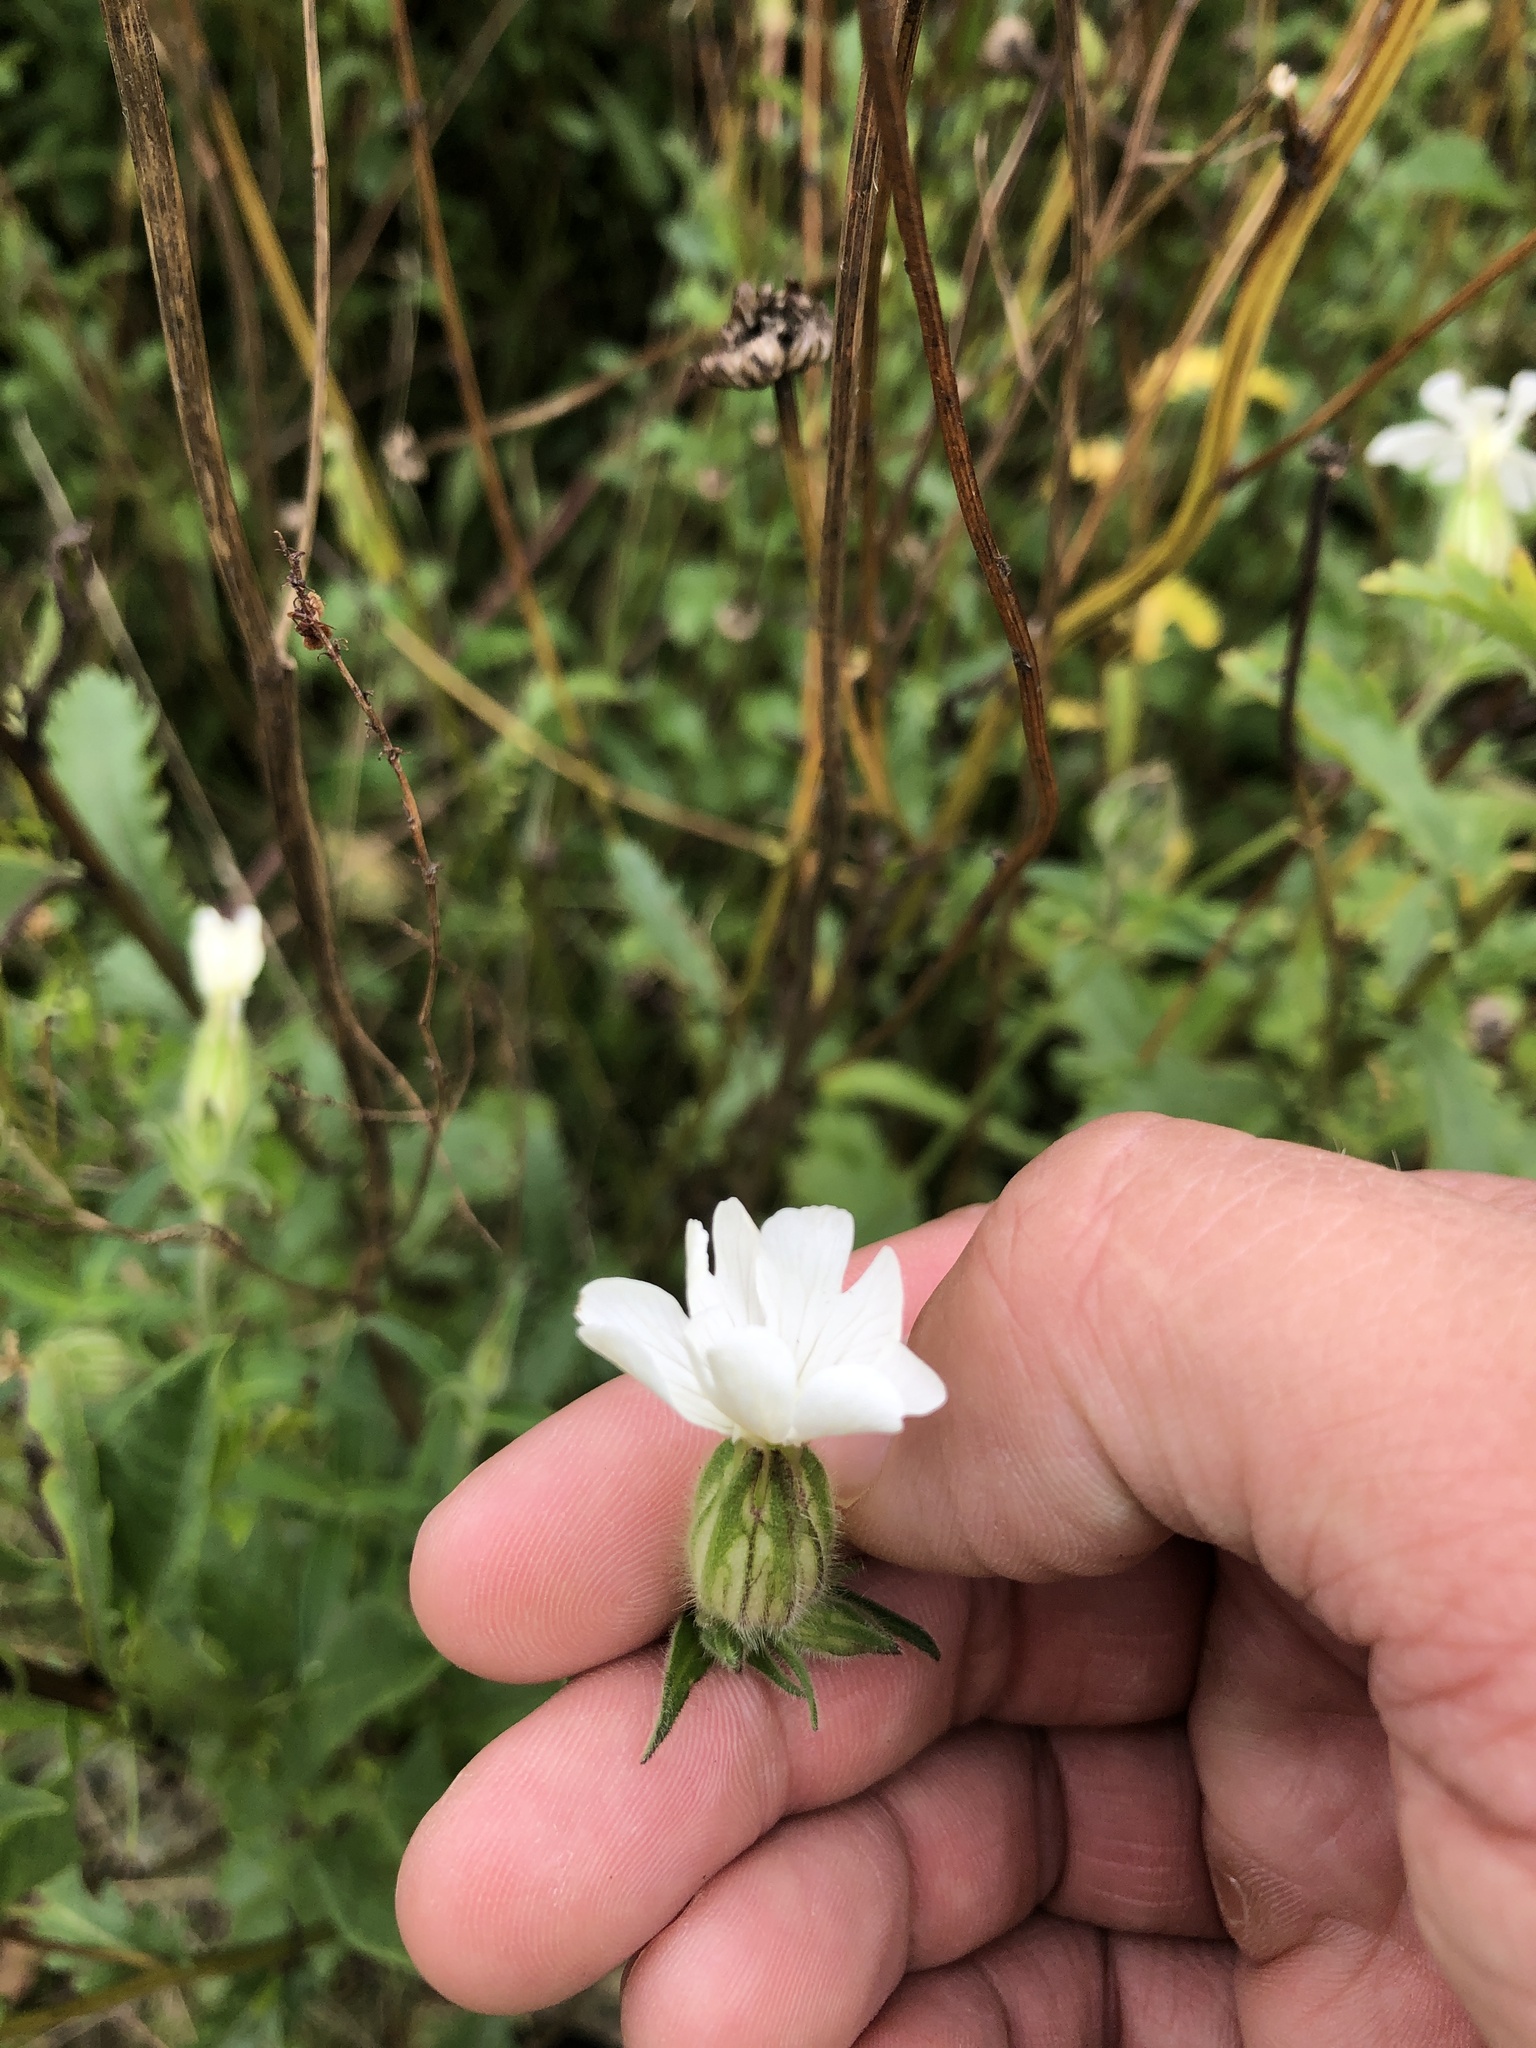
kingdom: Plantae
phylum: Tracheophyta
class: Magnoliopsida
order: Caryophyllales
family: Caryophyllaceae
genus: Silene
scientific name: Silene latifolia
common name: White campion
